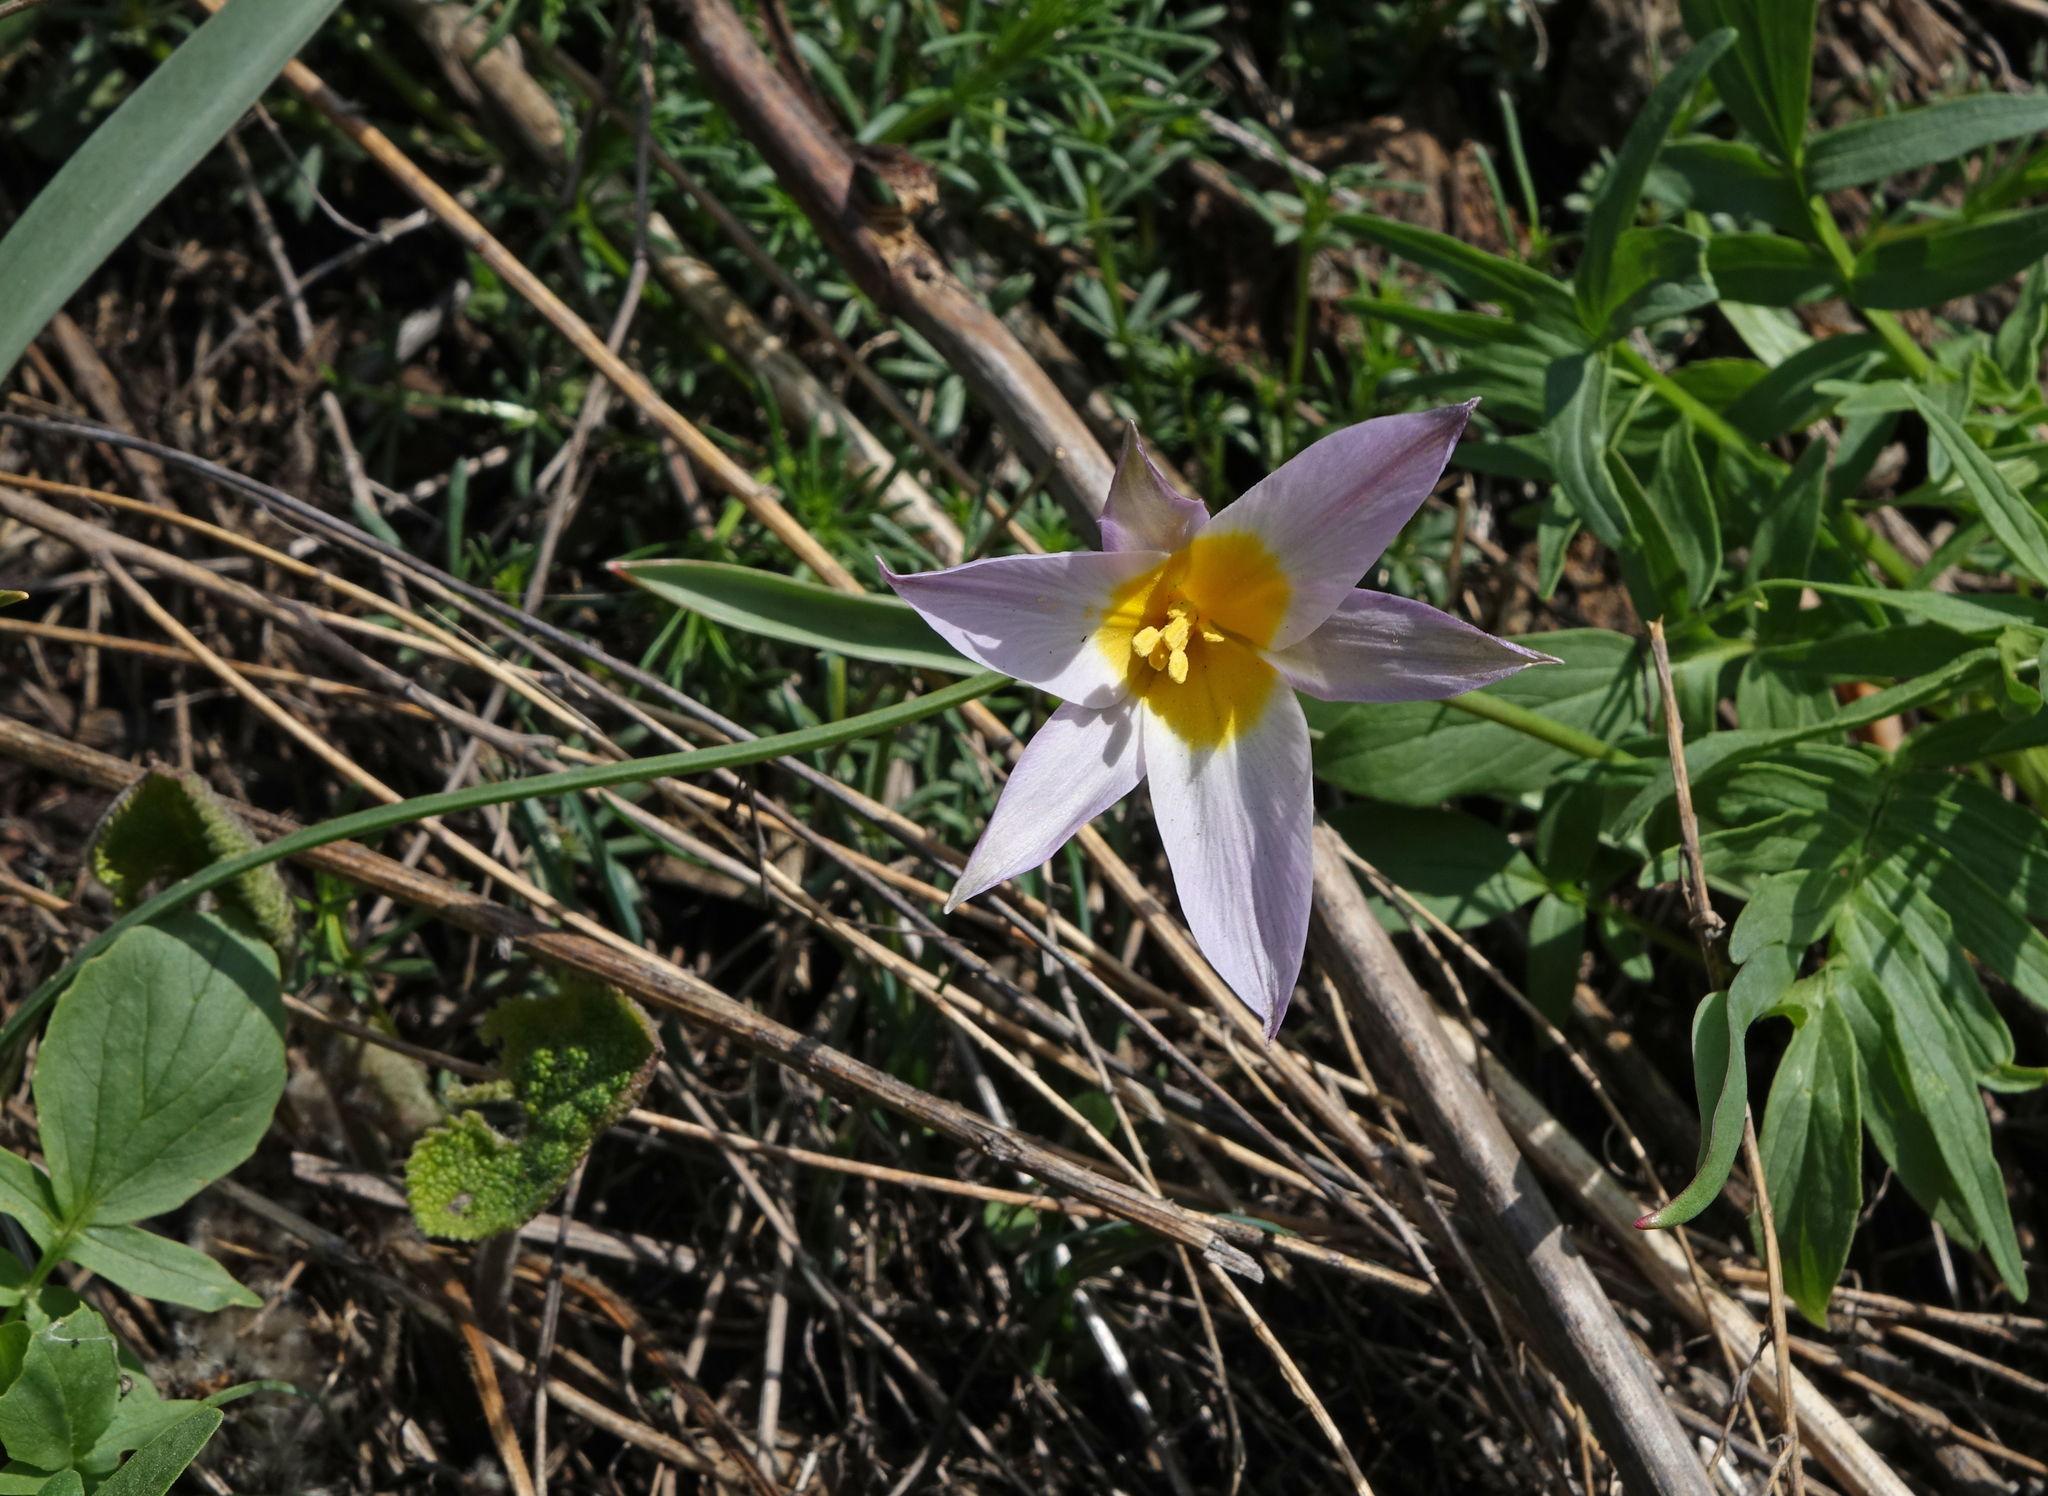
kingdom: Plantae
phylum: Tracheophyta
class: Liliopsida
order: Liliales
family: Liliaceae
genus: Tulipa
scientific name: Tulipa patens
